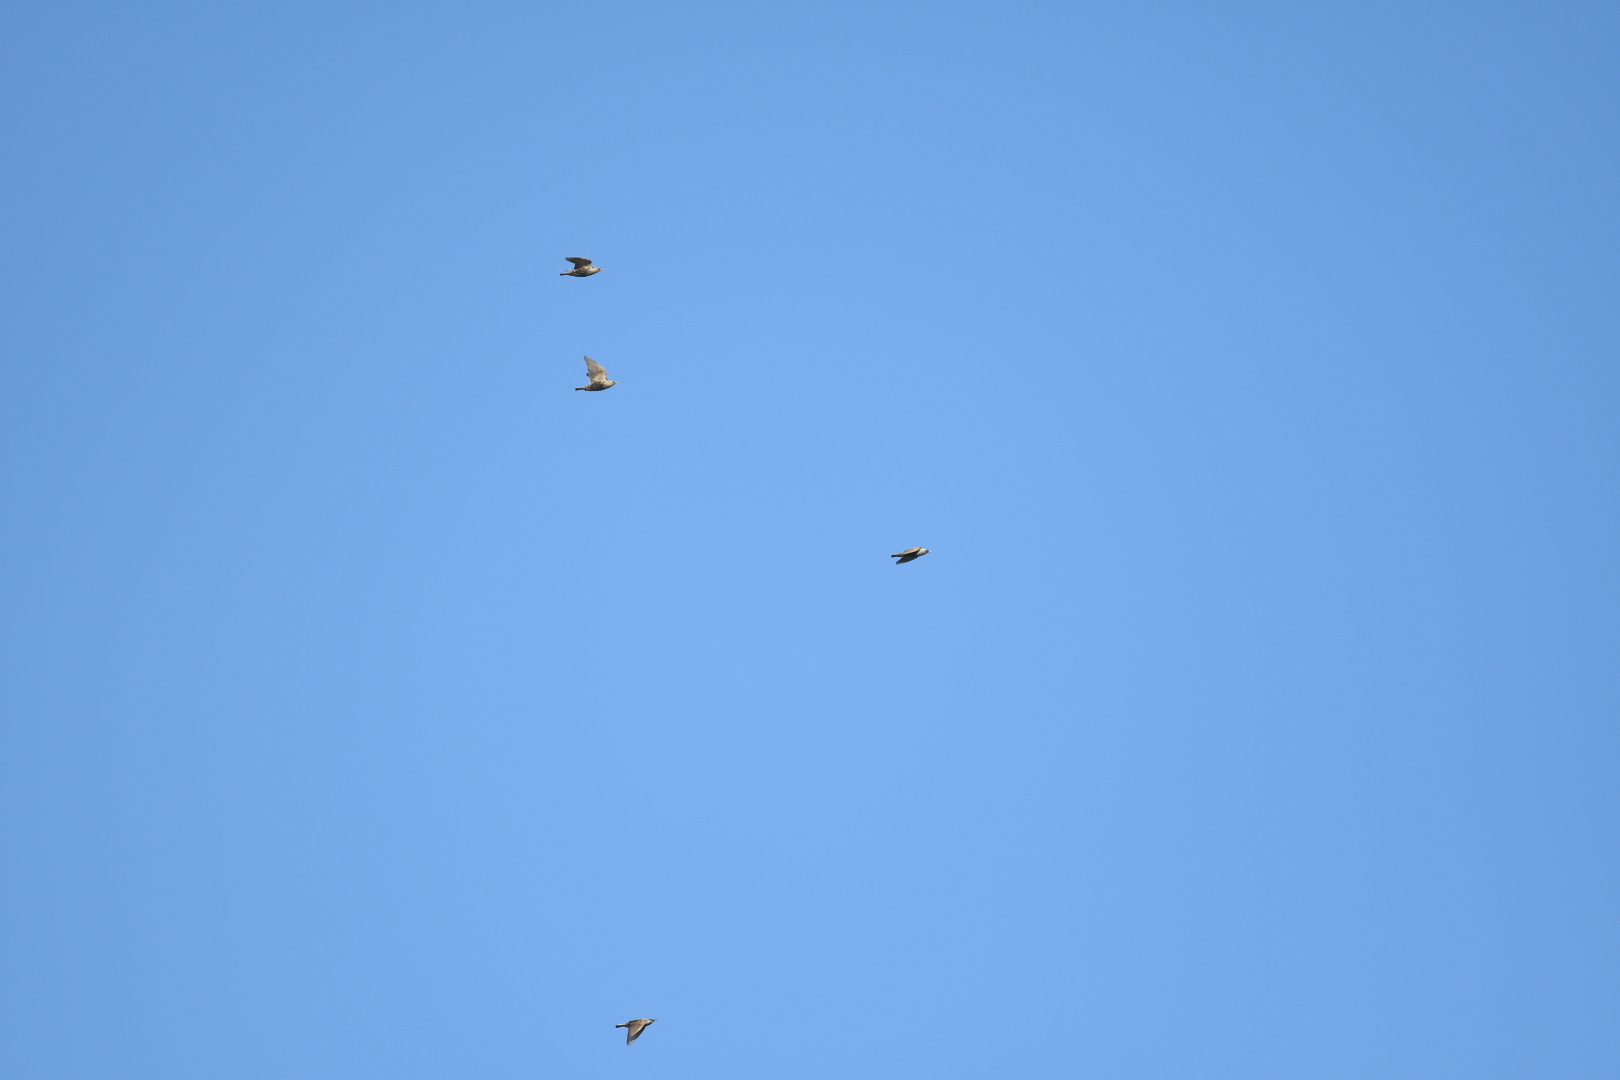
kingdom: Animalia
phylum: Chordata
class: Aves
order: Passeriformes
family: Sturnidae
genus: Sturnus
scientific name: Sturnus vulgaris
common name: Common starling
